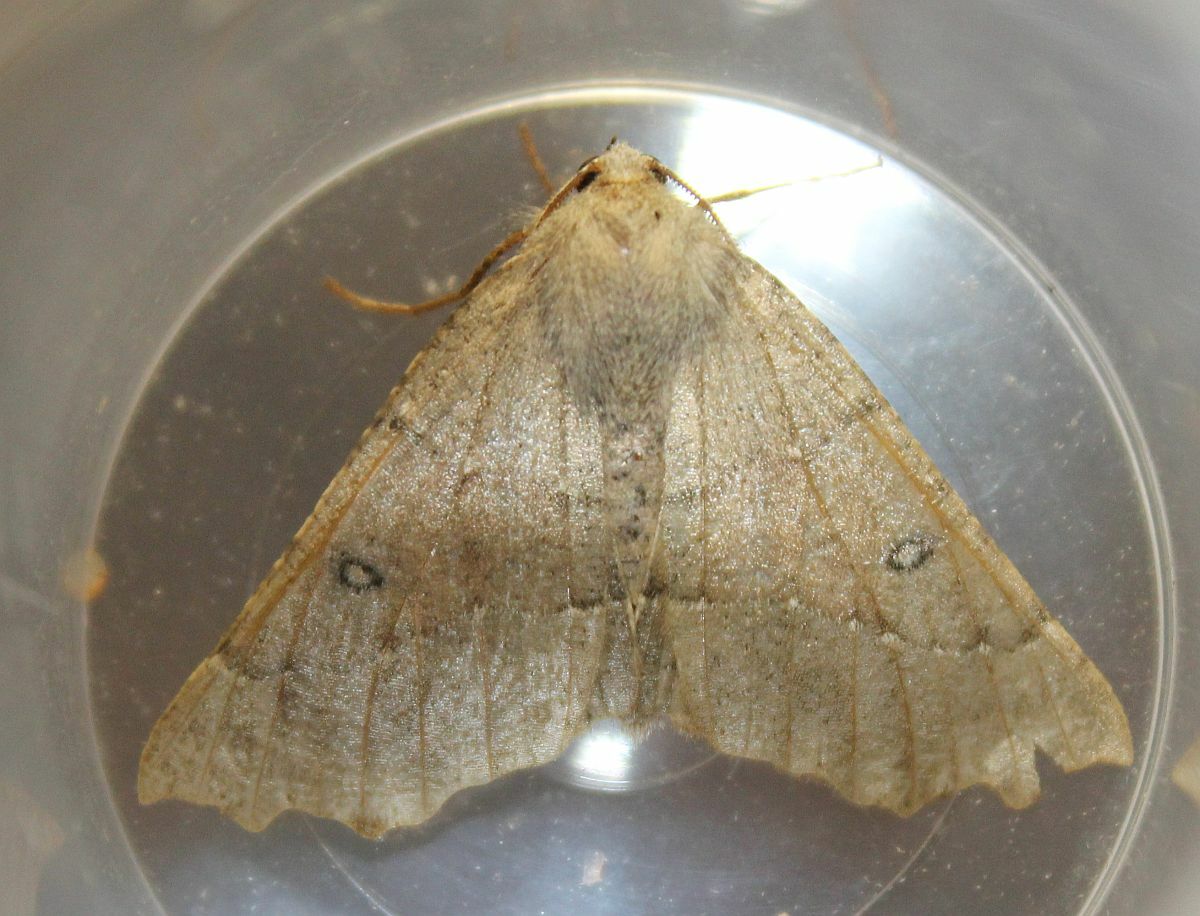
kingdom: Animalia
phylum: Arthropoda
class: Insecta
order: Lepidoptera
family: Geometridae
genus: Odontopera
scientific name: Odontopera bidentata
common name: Scalloped hazel
